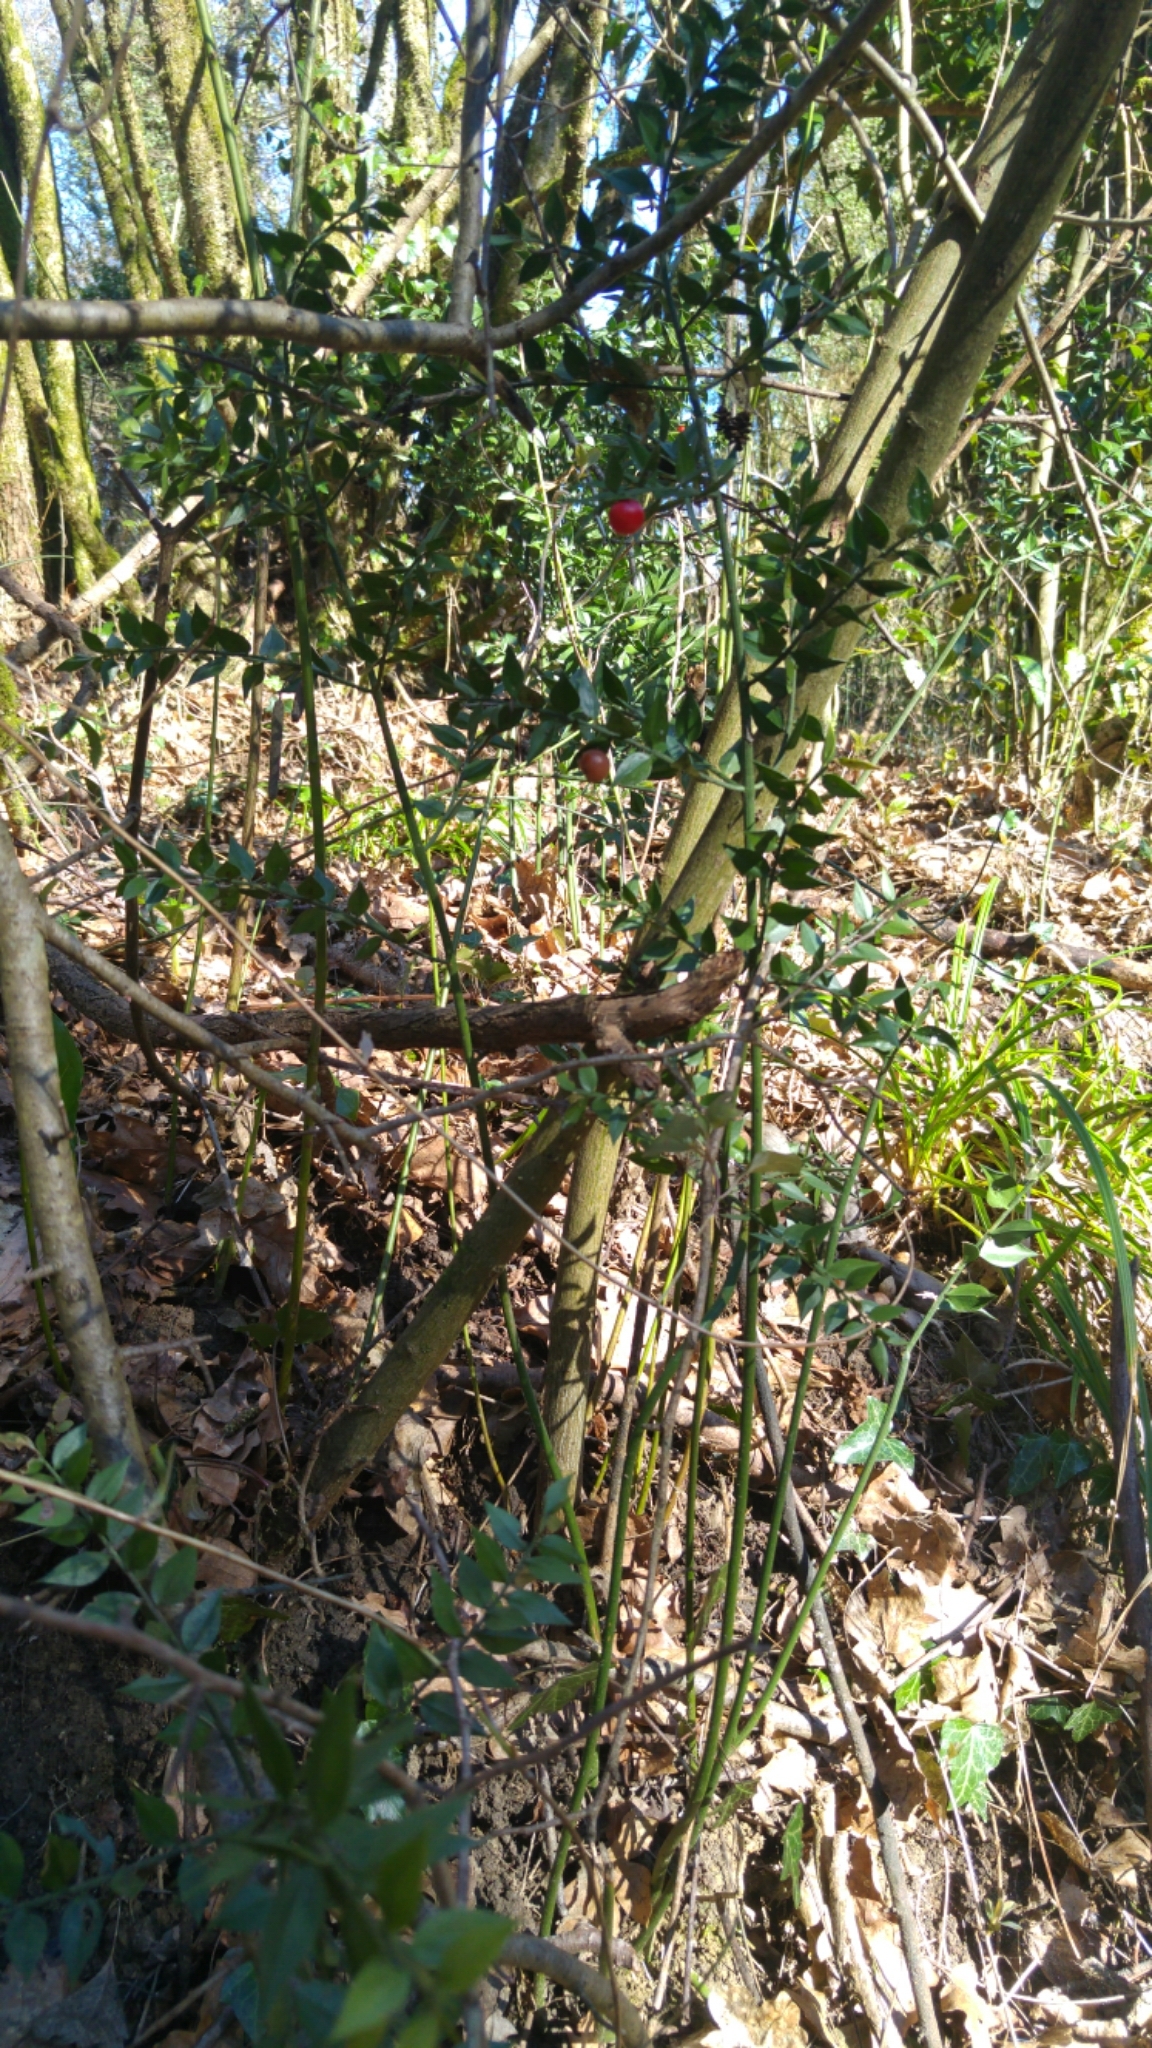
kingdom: Plantae
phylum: Tracheophyta
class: Liliopsida
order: Asparagales
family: Asparagaceae
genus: Ruscus
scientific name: Ruscus aculeatus
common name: Butcher's-broom
